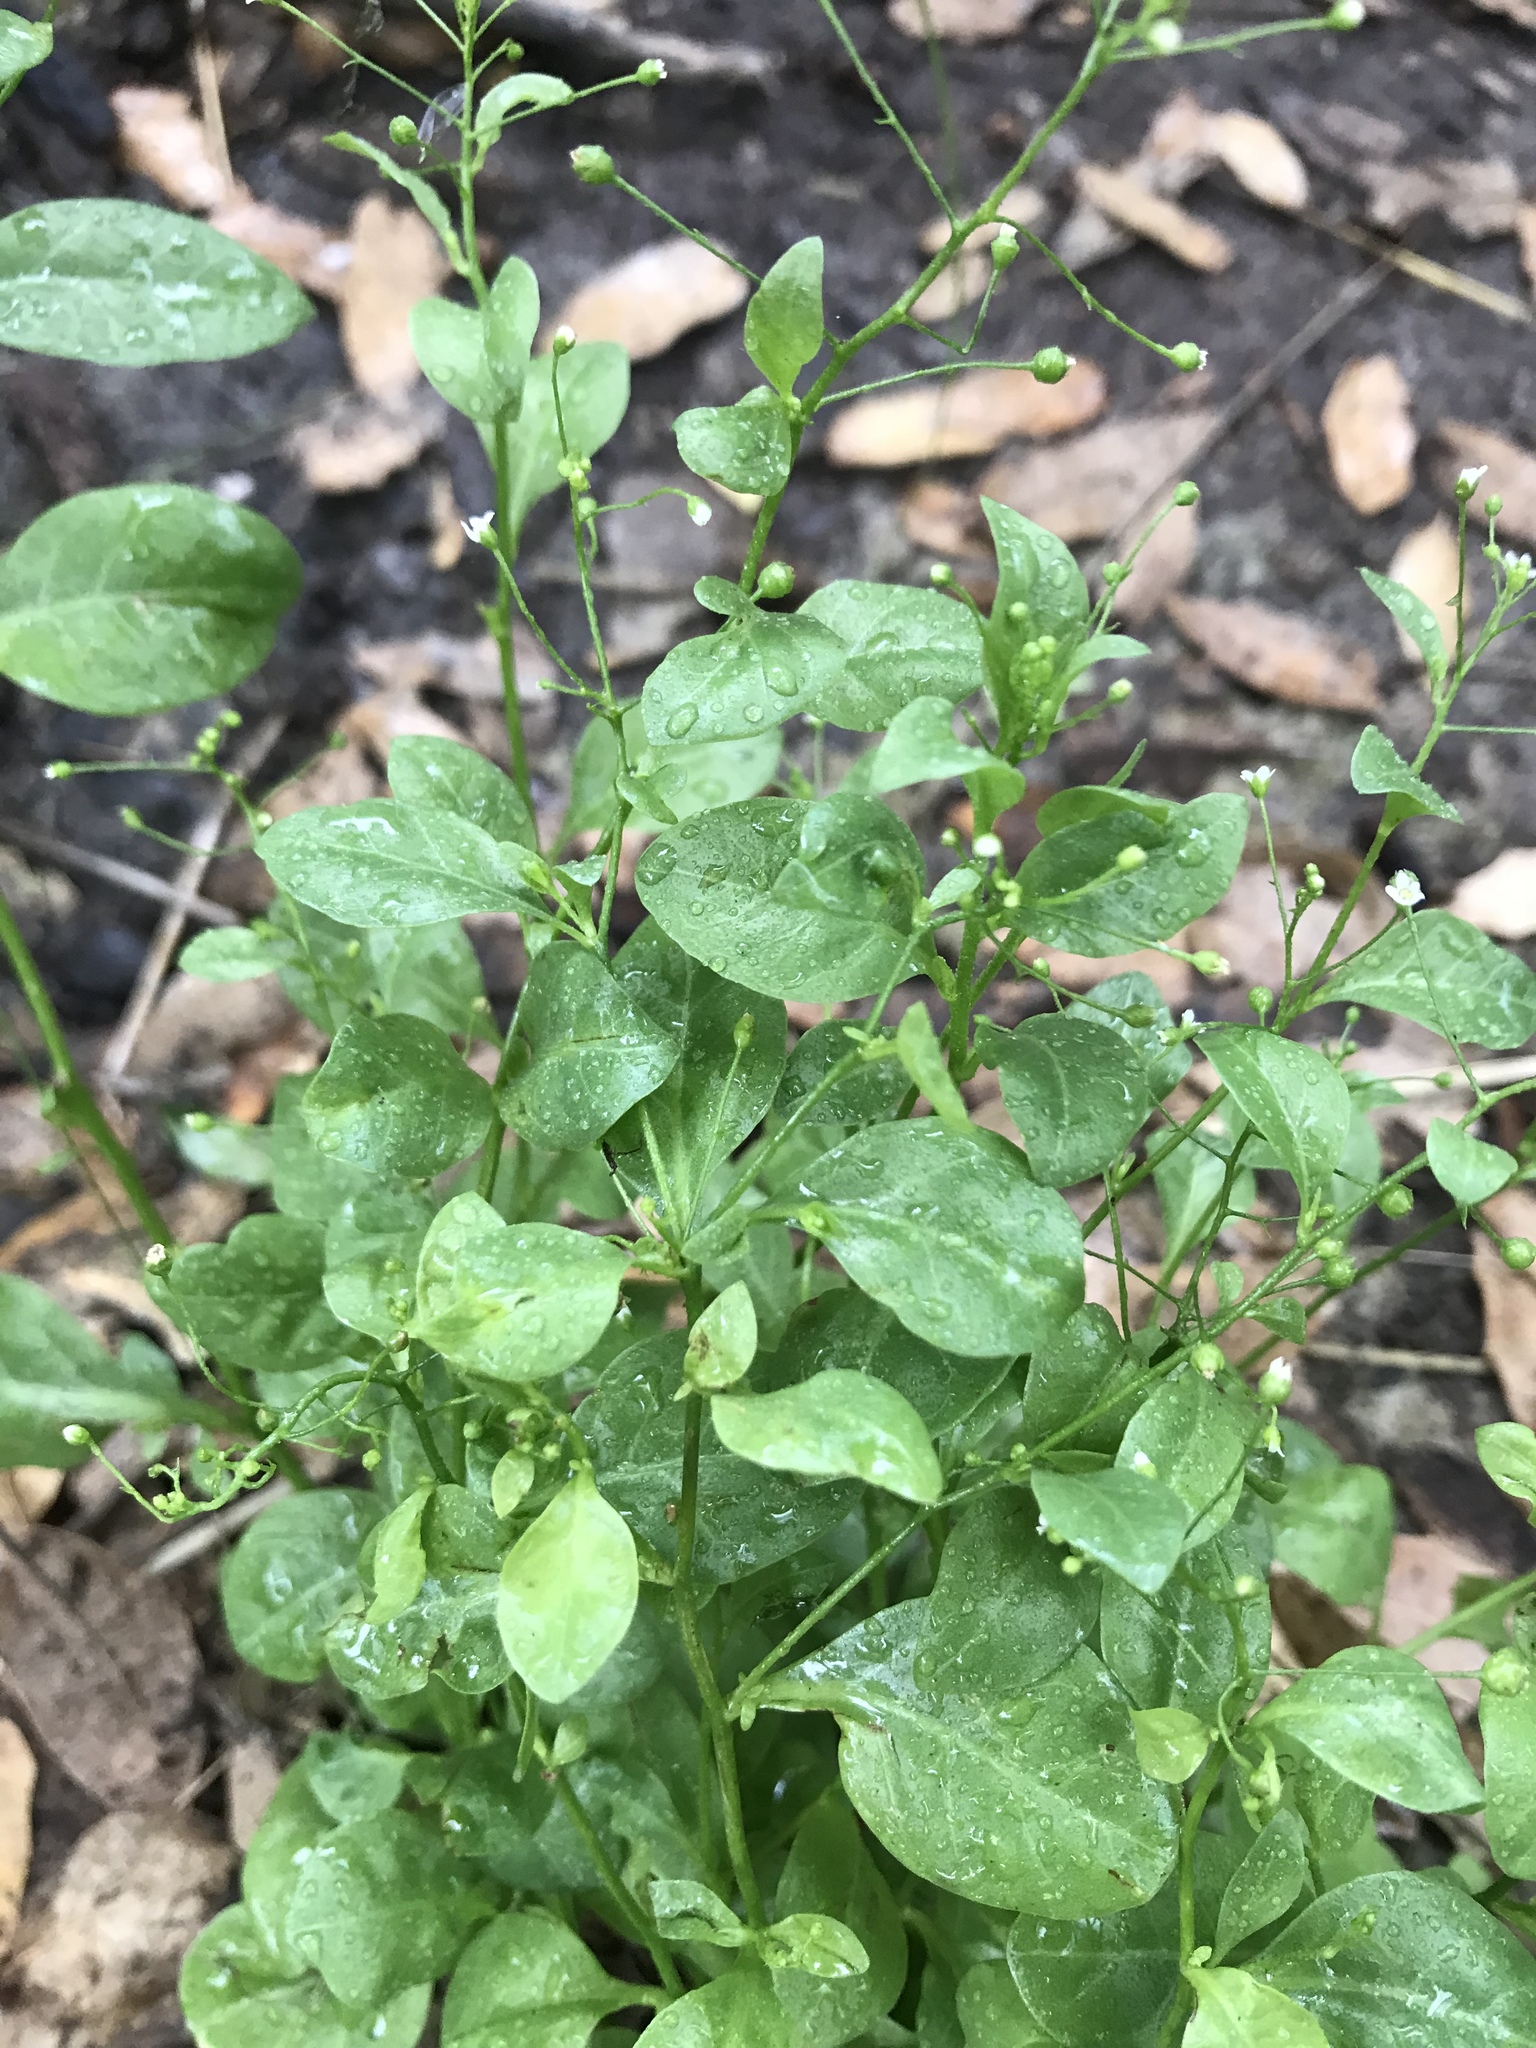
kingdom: Plantae
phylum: Tracheophyta
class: Magnoliopsida
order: Ericales
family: Primulaceae
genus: Samolus
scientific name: Samolus parviflorus
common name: False water pimpernel
